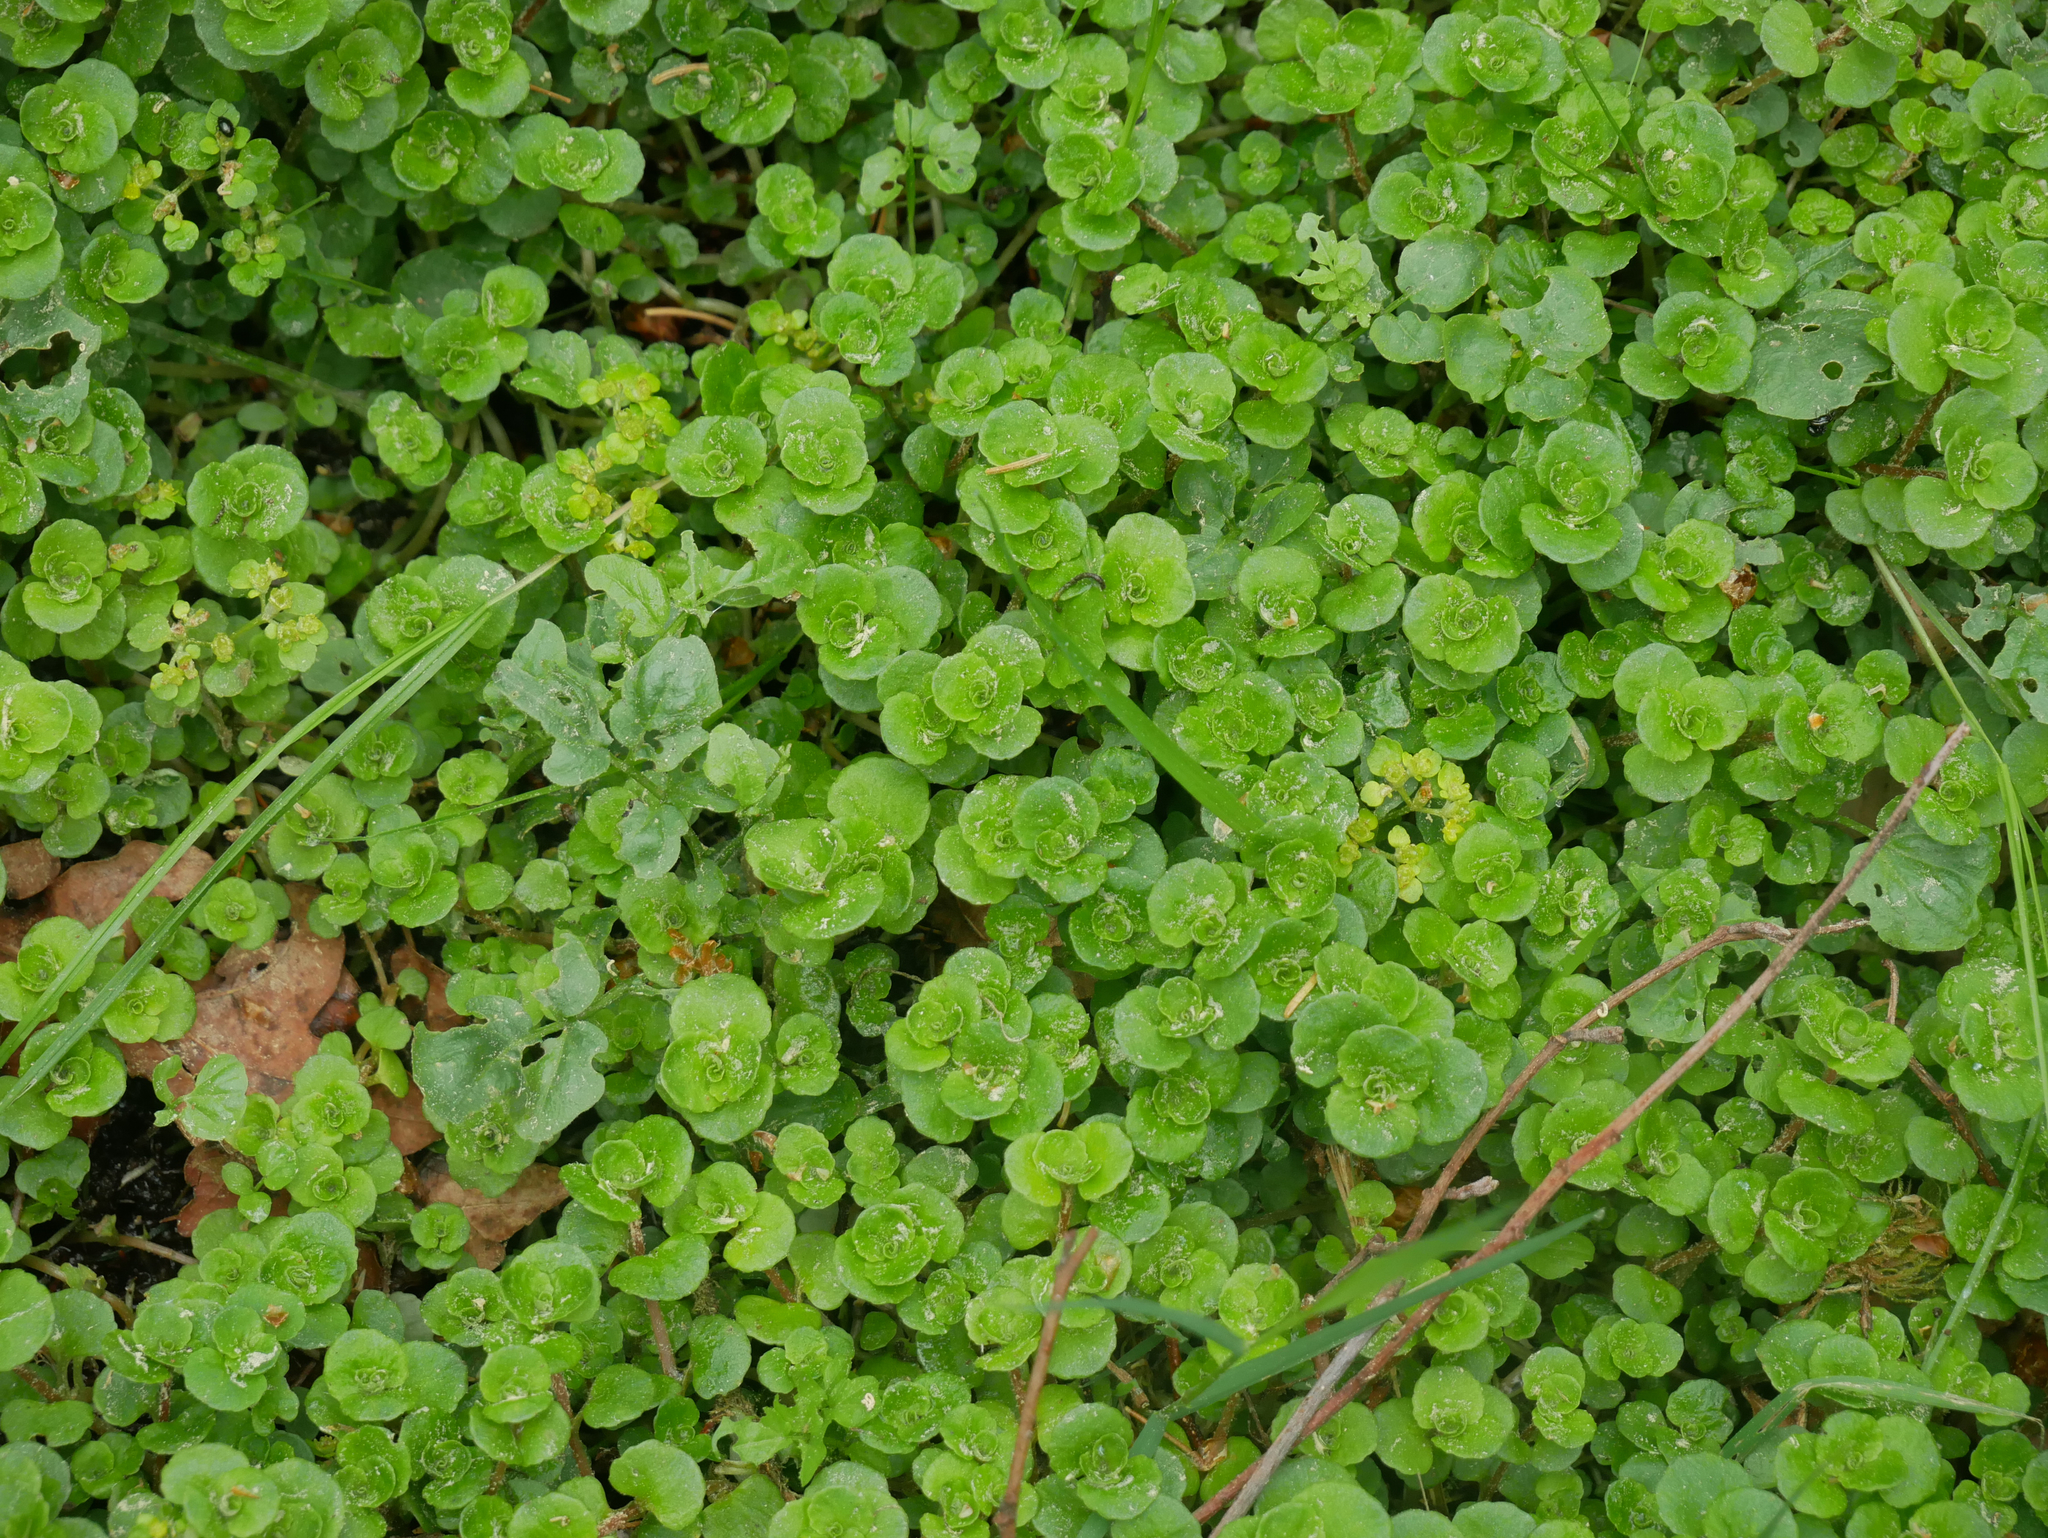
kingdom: Plantae
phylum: Tracheophyta
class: Magnoliopsida
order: Saxifragales
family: Saxifragaceae
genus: Chrysosplenium
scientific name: Chrysosplenium oppositifolium
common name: Opposite-leaved golden-saxifrage
